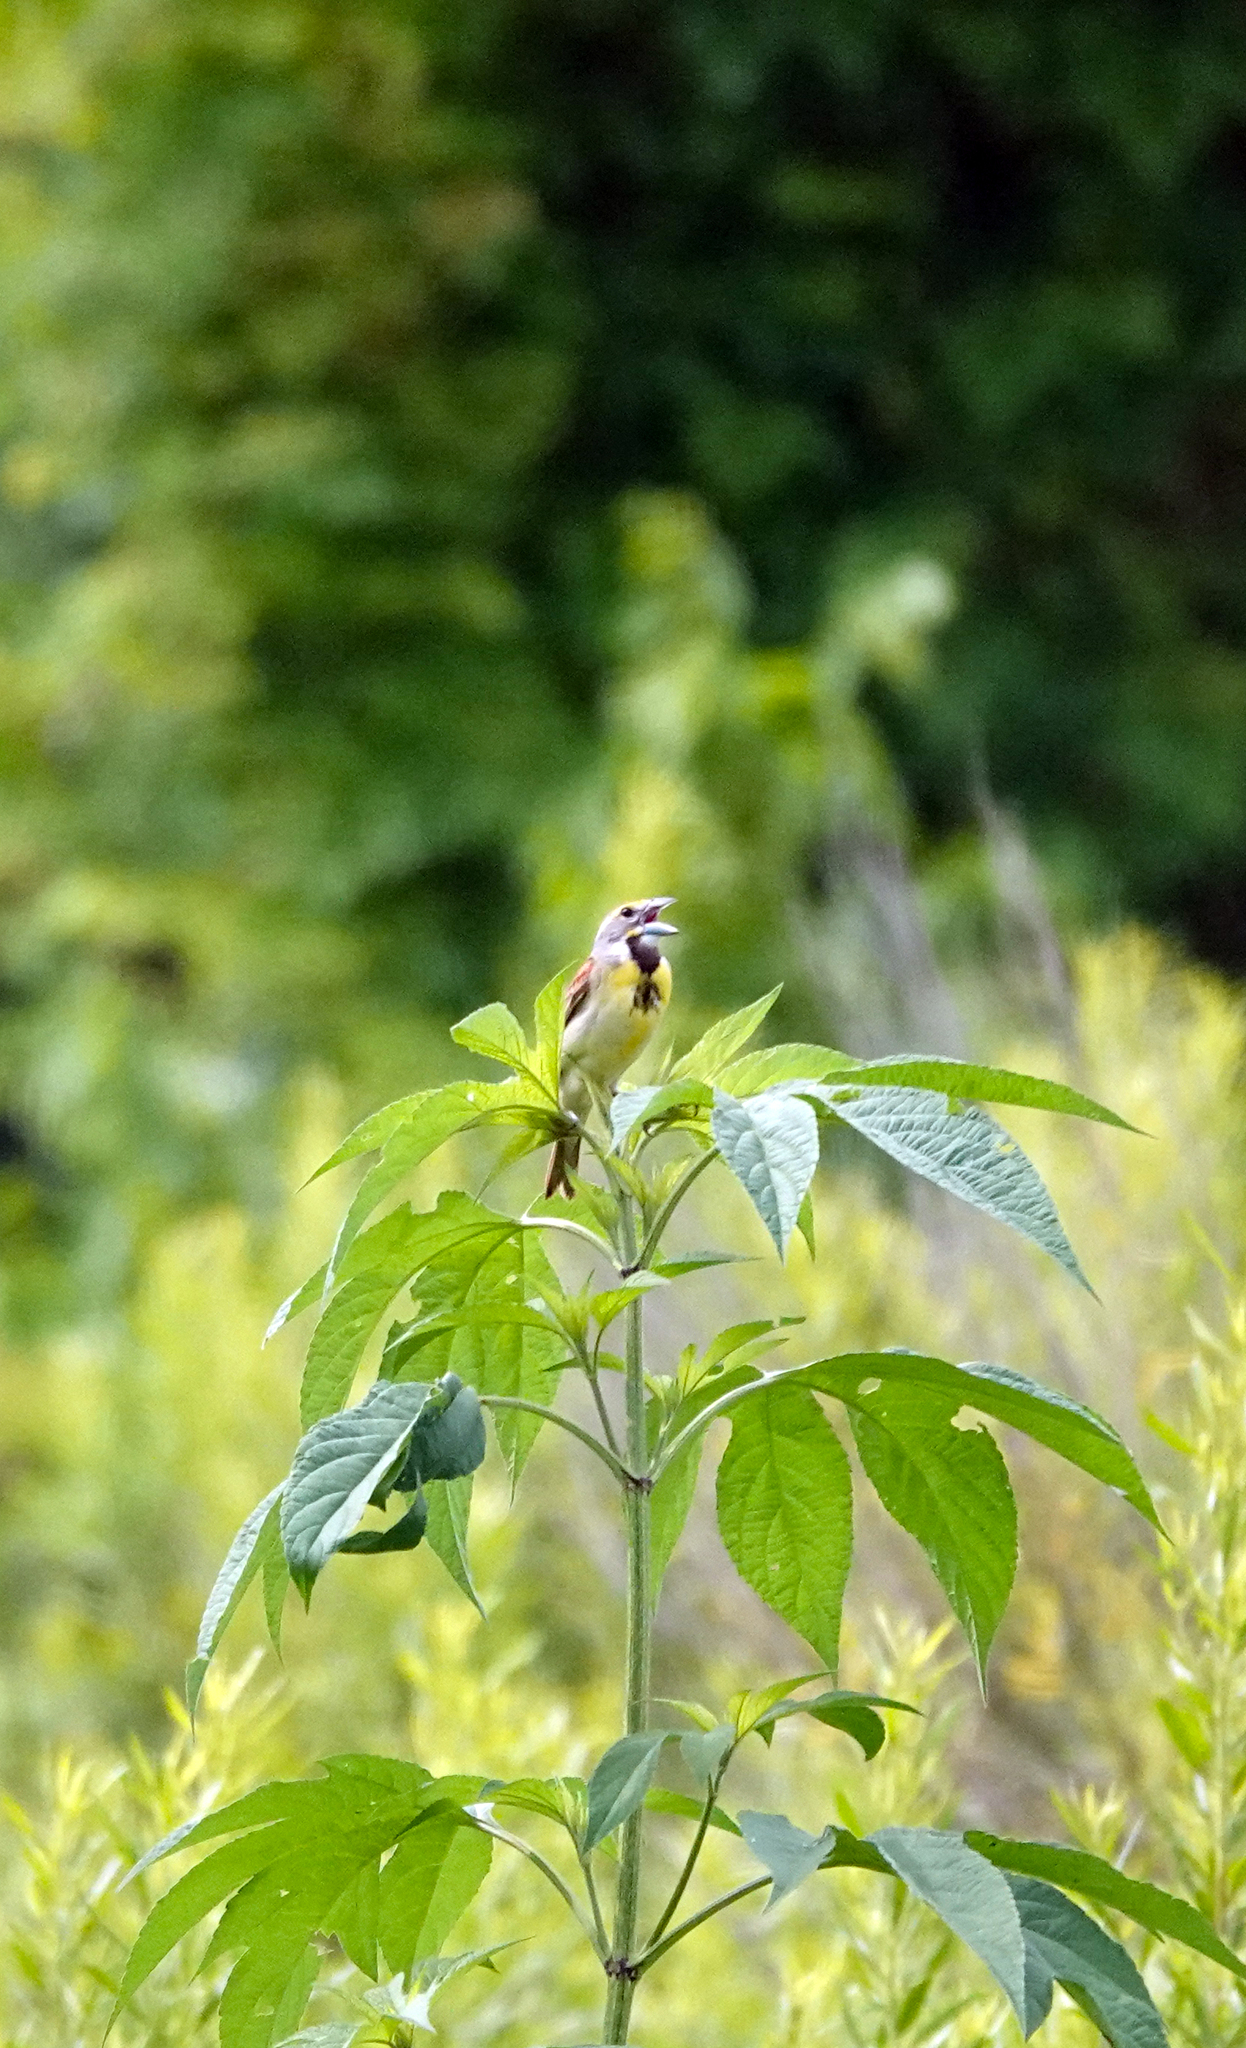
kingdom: Animalia
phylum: Chordata
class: Aves
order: Passeriformes
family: Cardinalidae
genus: Spiza
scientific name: Spiza americana
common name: Dickcissel
